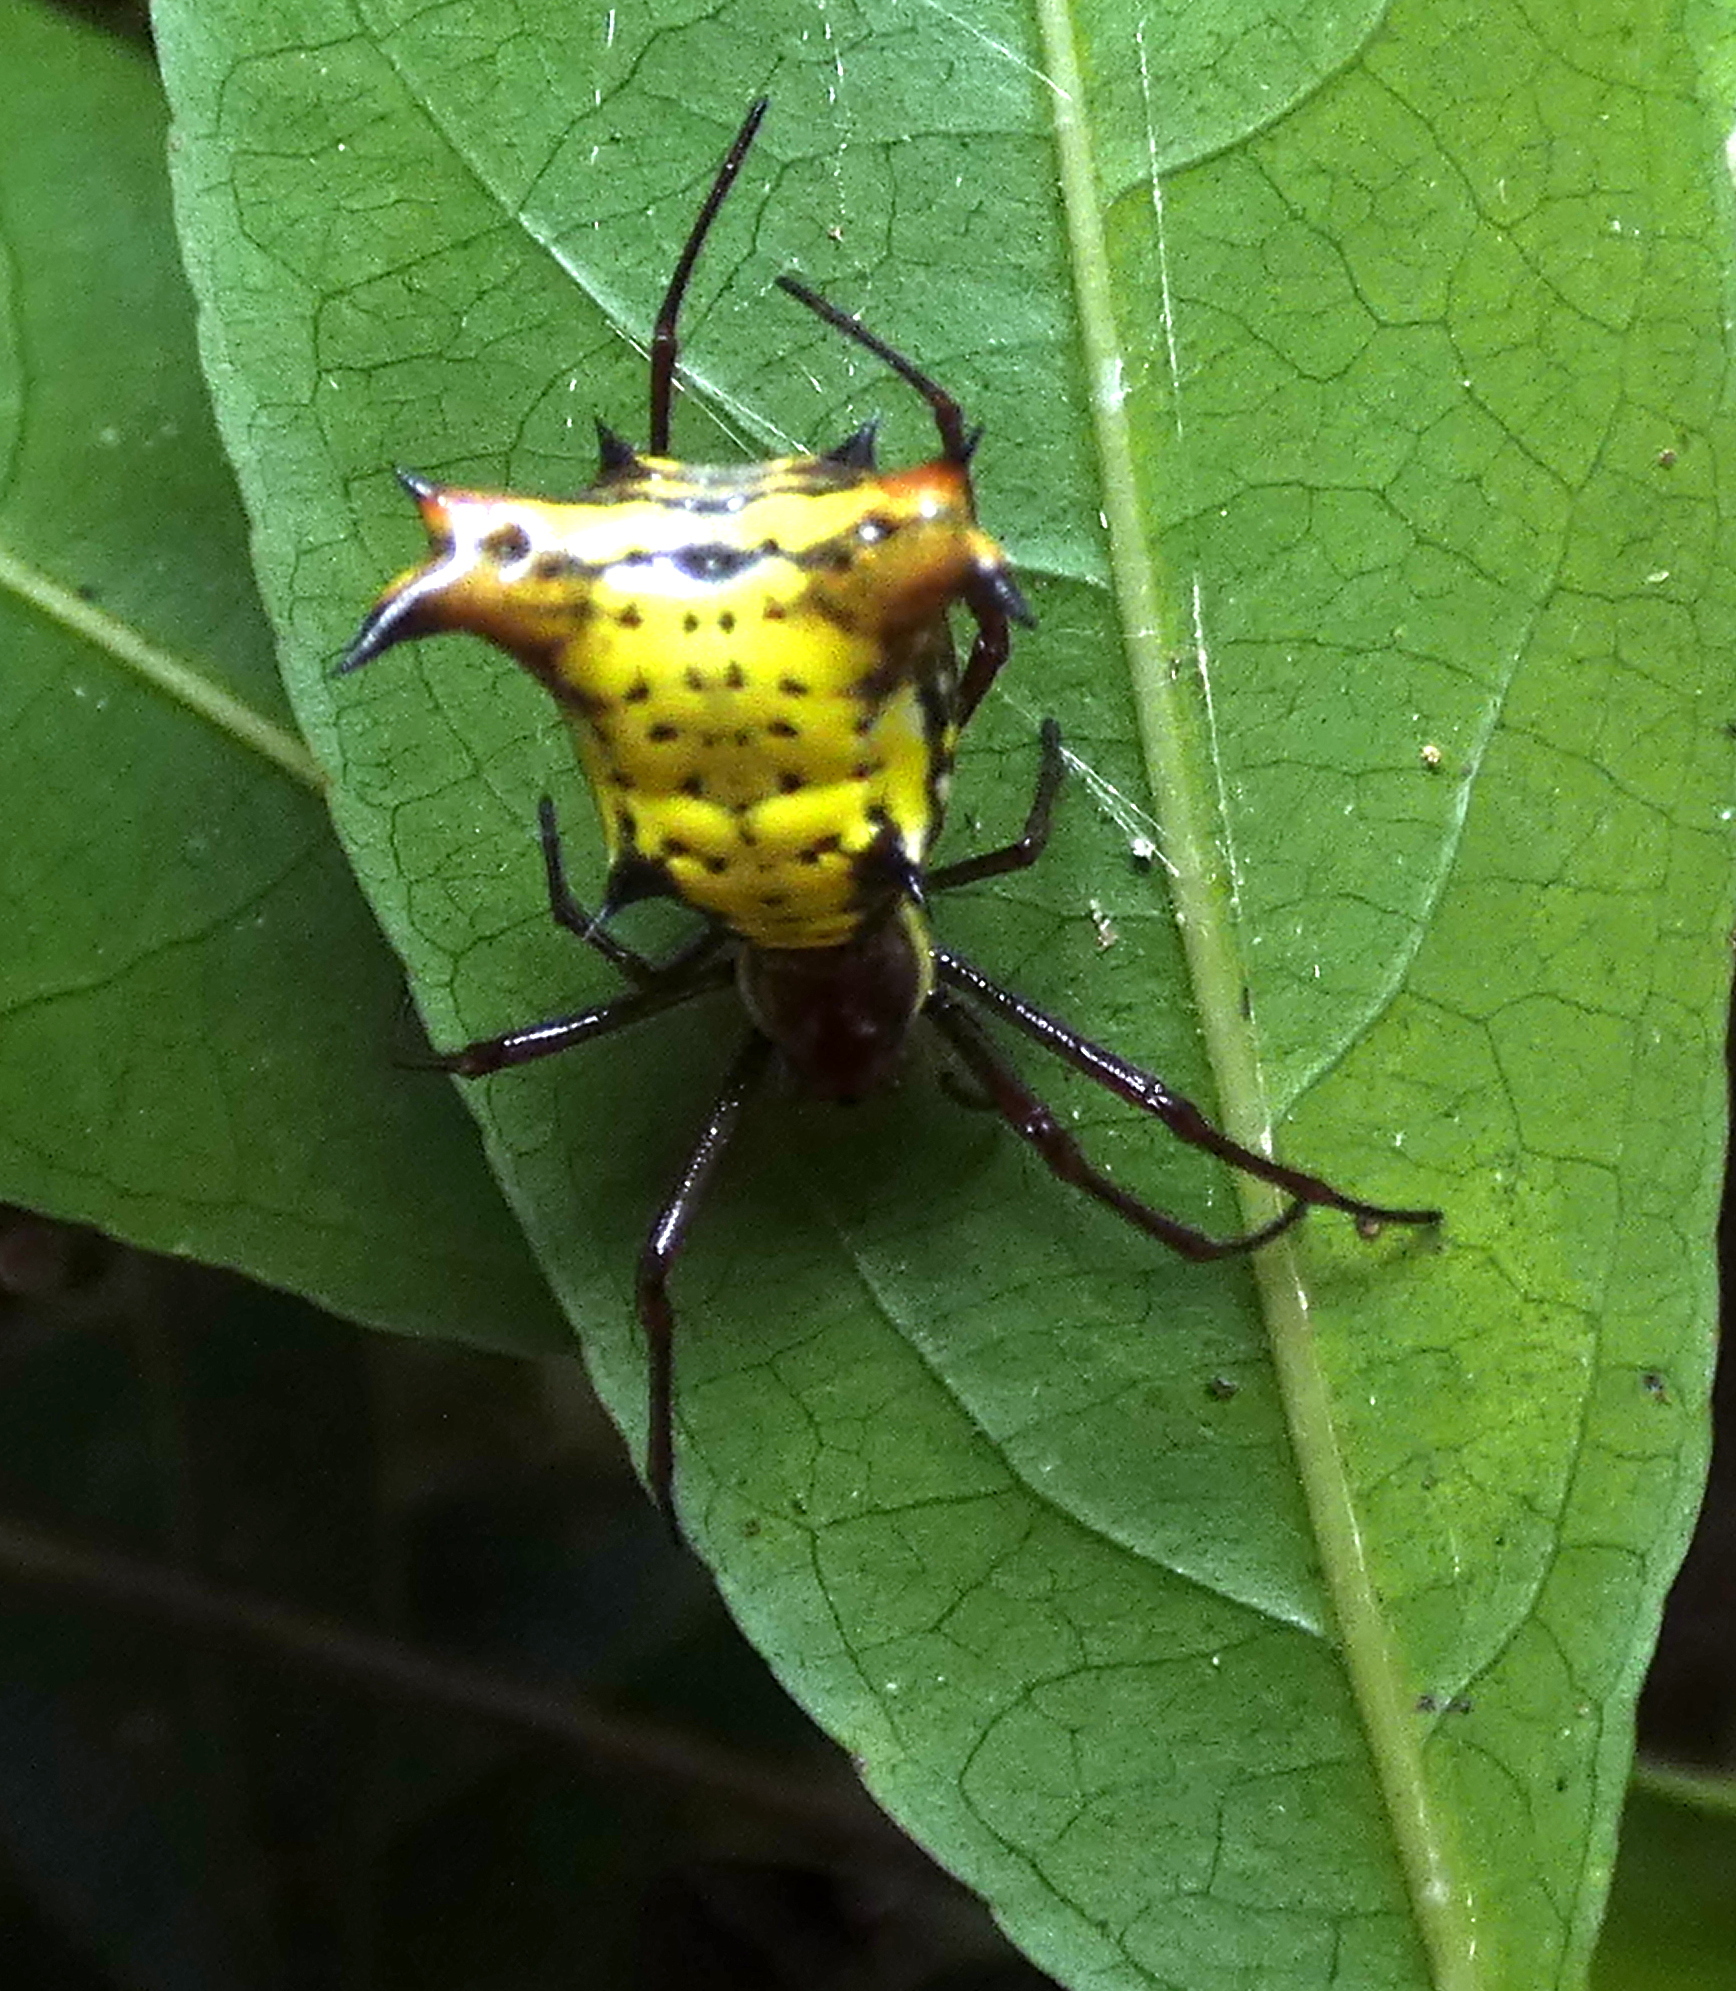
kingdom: Animalia
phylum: Arthropoda
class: Arachnida
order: Araneae
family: Araneidae
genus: Micrathena
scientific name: Micrathena fissispina
